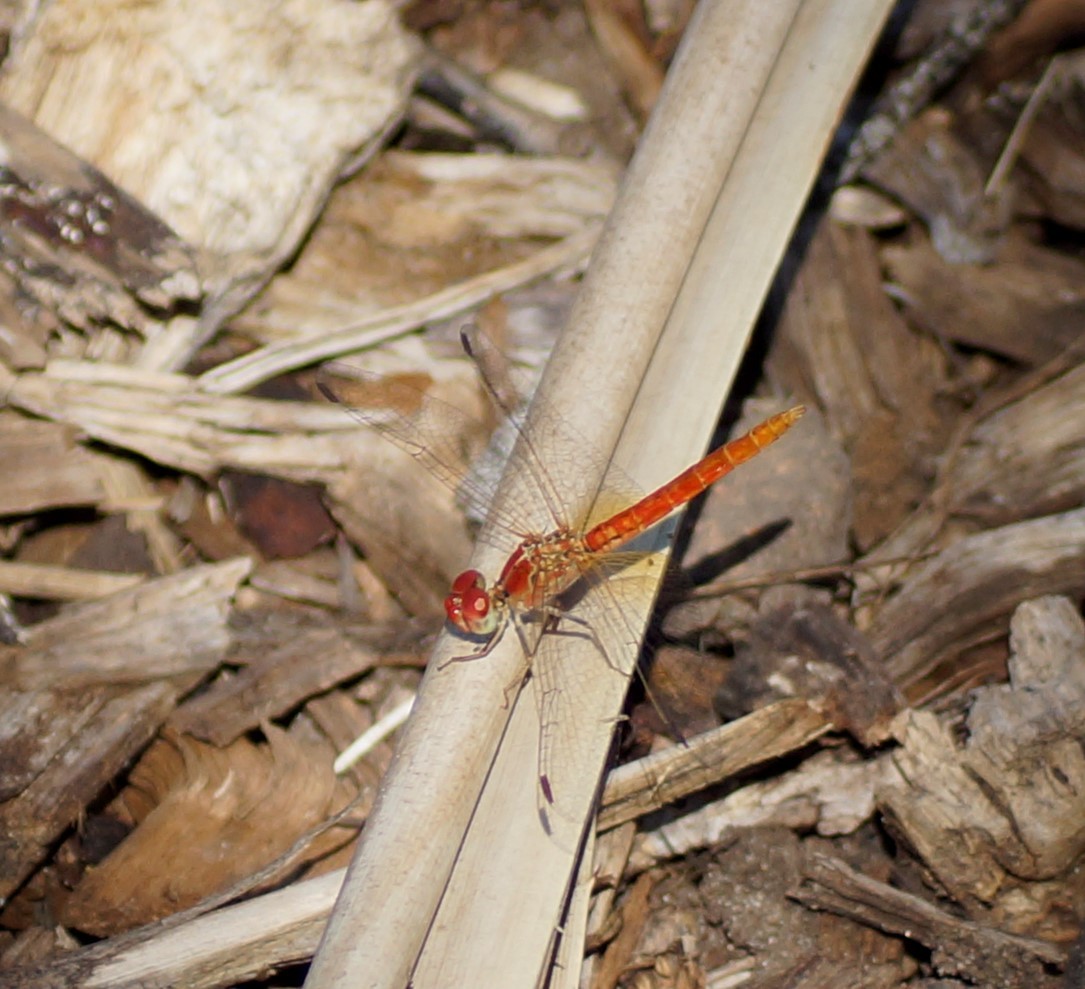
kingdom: Animalia
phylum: Arthropoda
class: Insecta
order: Odonata
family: Libellulidae
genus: Diplacodes
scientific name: Diplacodes haematodes
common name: Scarlet percher
